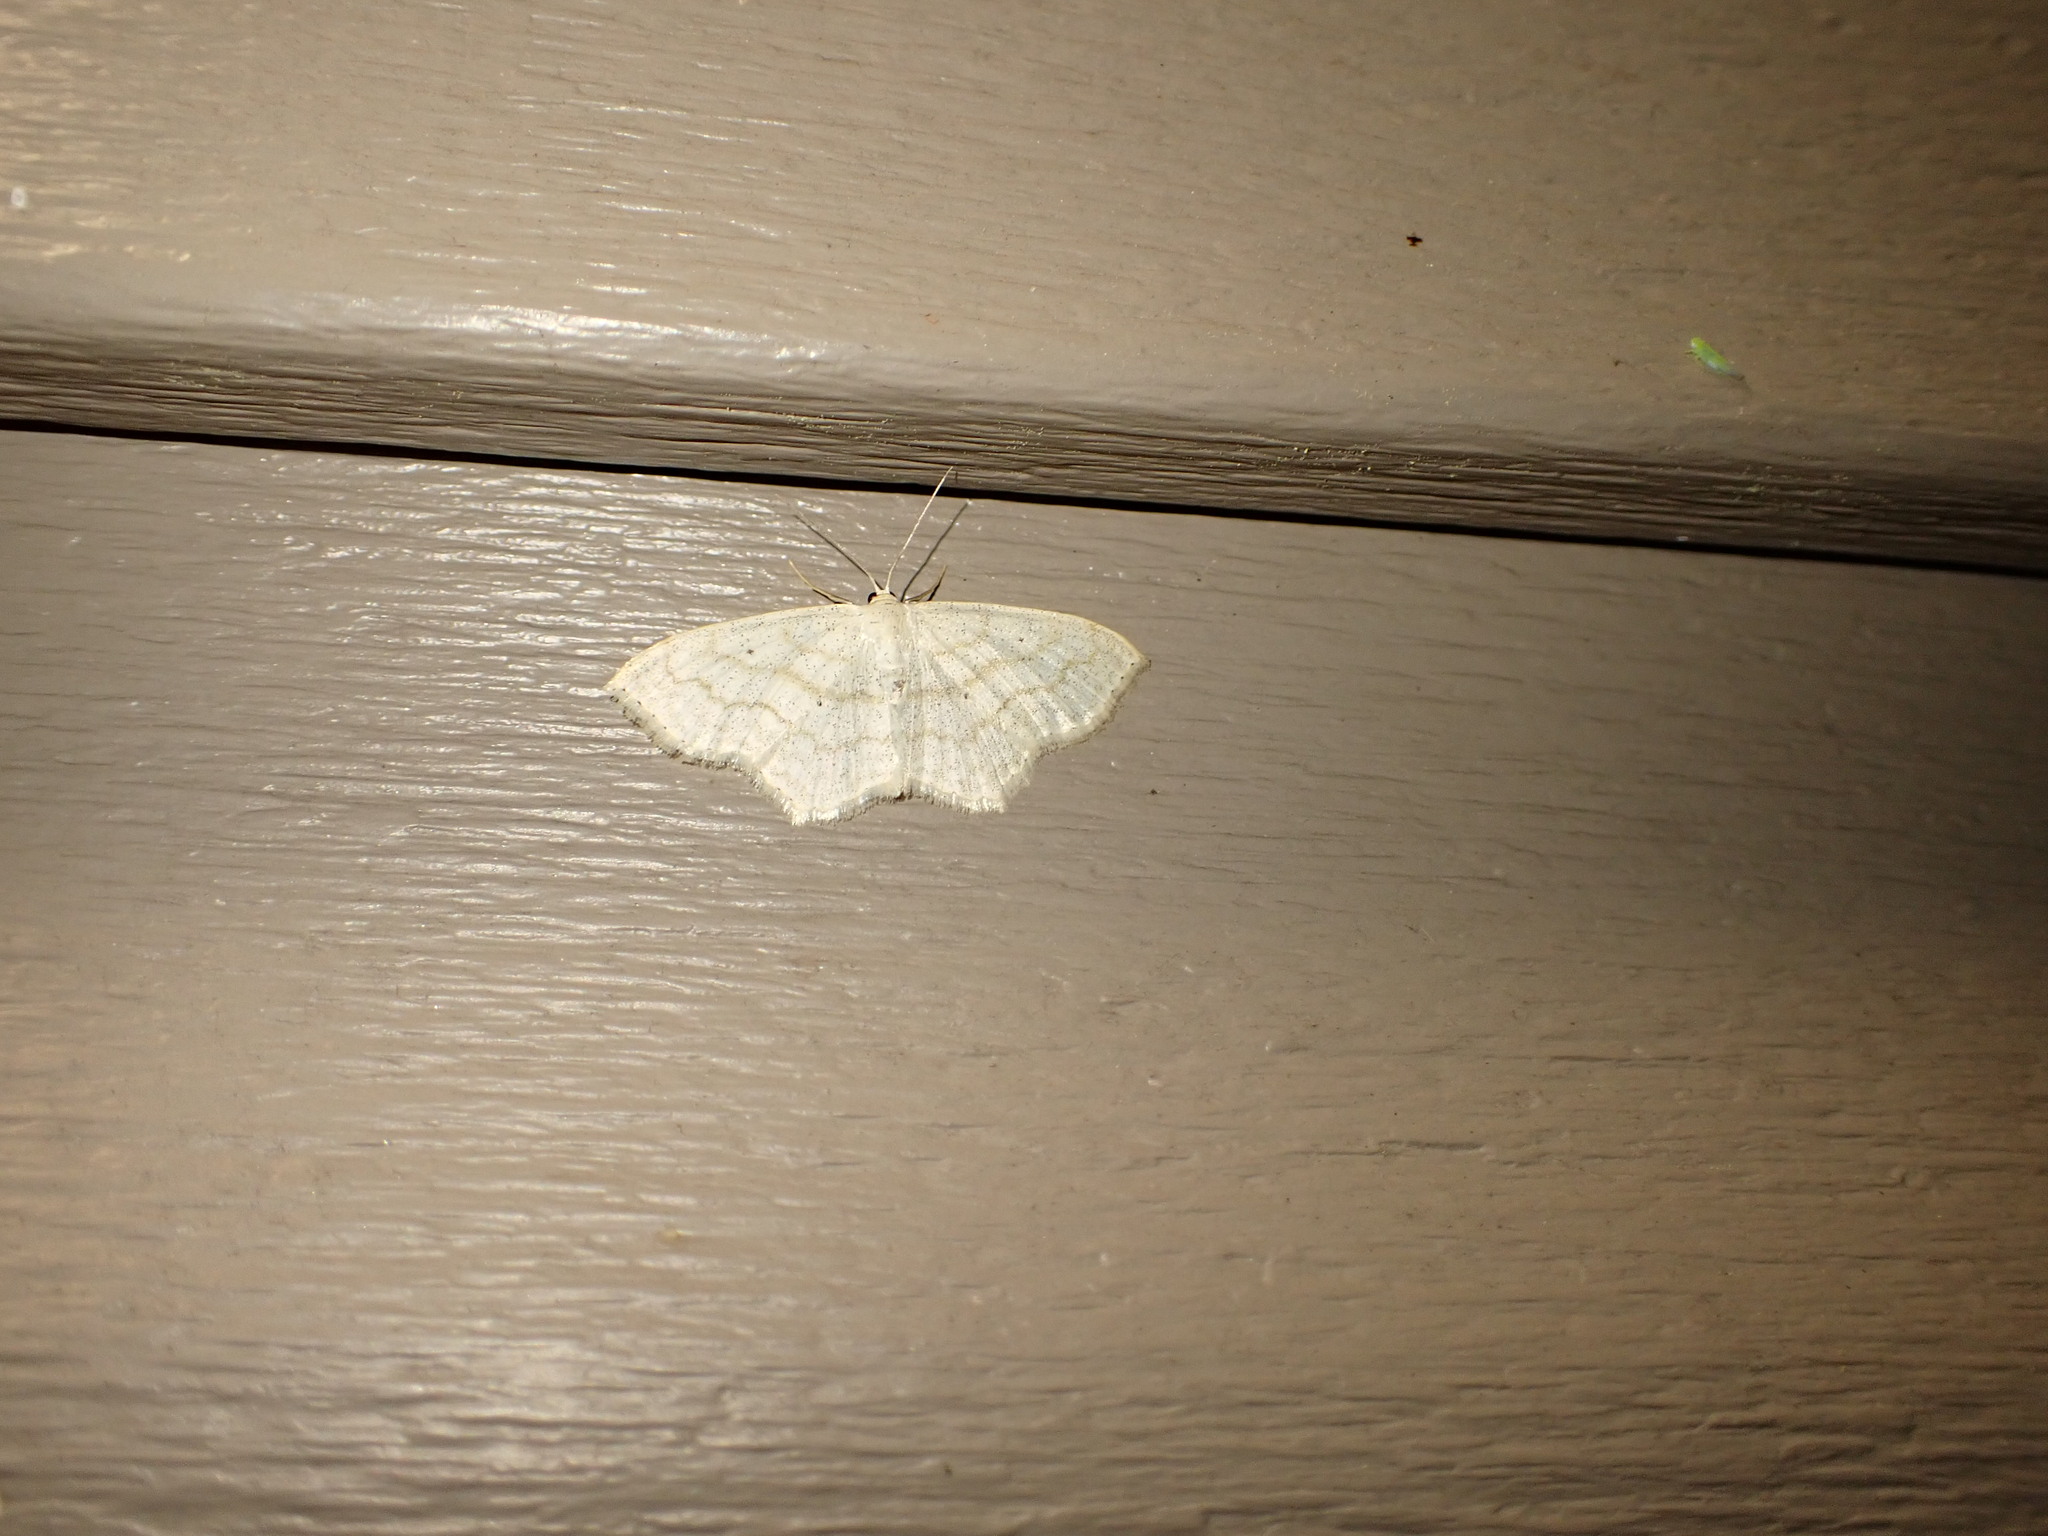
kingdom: Animalia
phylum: Arthropoda
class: Insecta
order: Lepidoptera
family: Geometridae
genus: Scopula
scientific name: Scopula limboundata
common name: Large lace border
